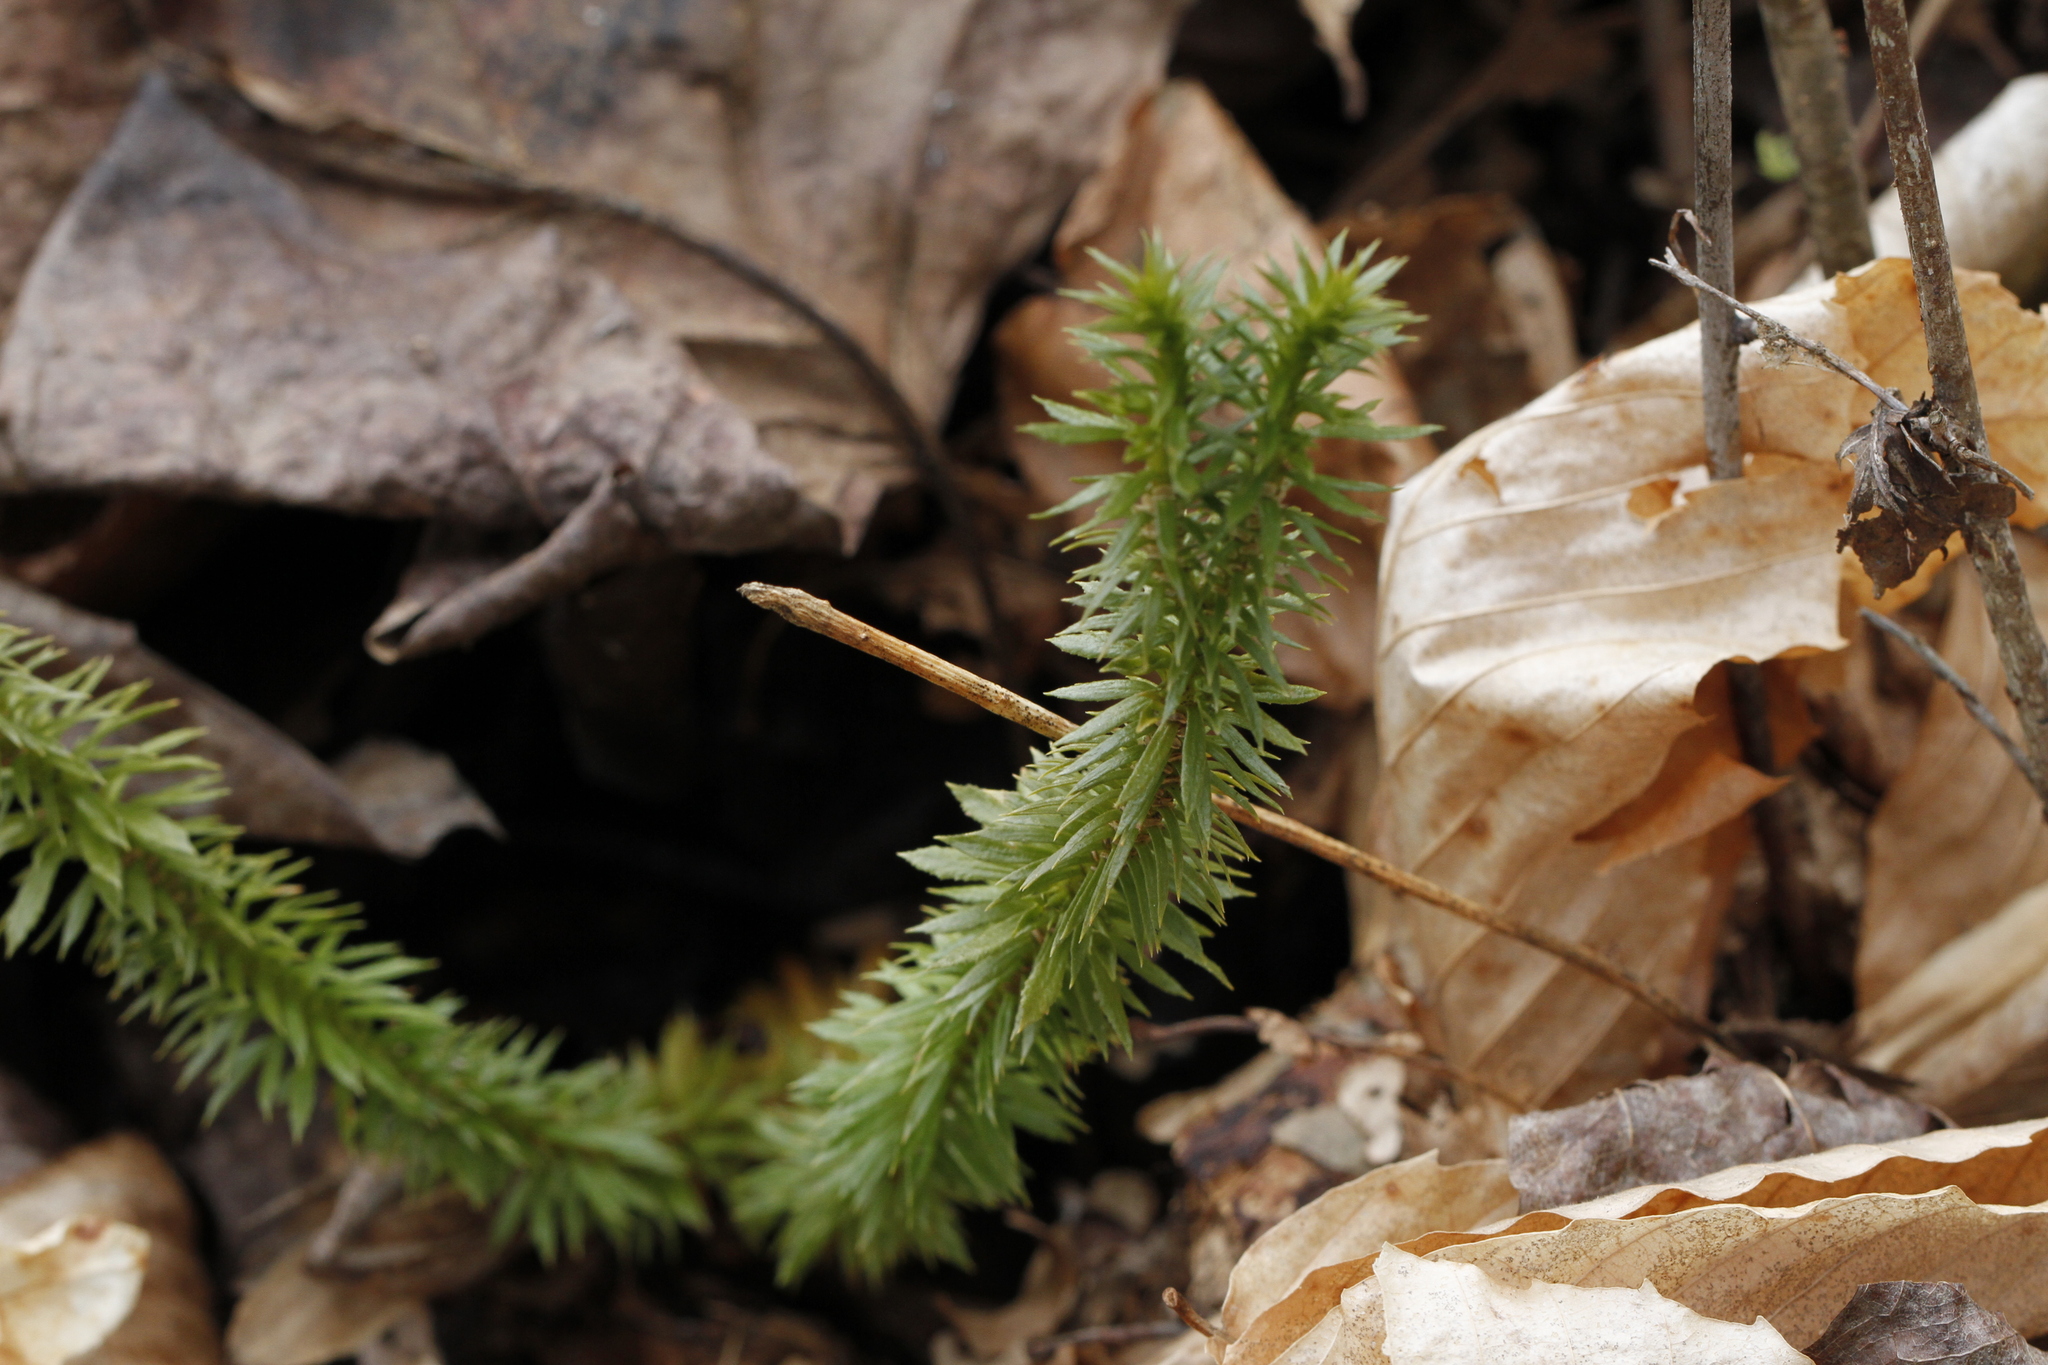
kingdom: Plantae
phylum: Tracheophyta
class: Lycopodiopsida
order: Lycopodiales
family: Lycopodiaceae
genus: Huperzia
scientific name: Huperzia lucidula
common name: Shining clubmoss
